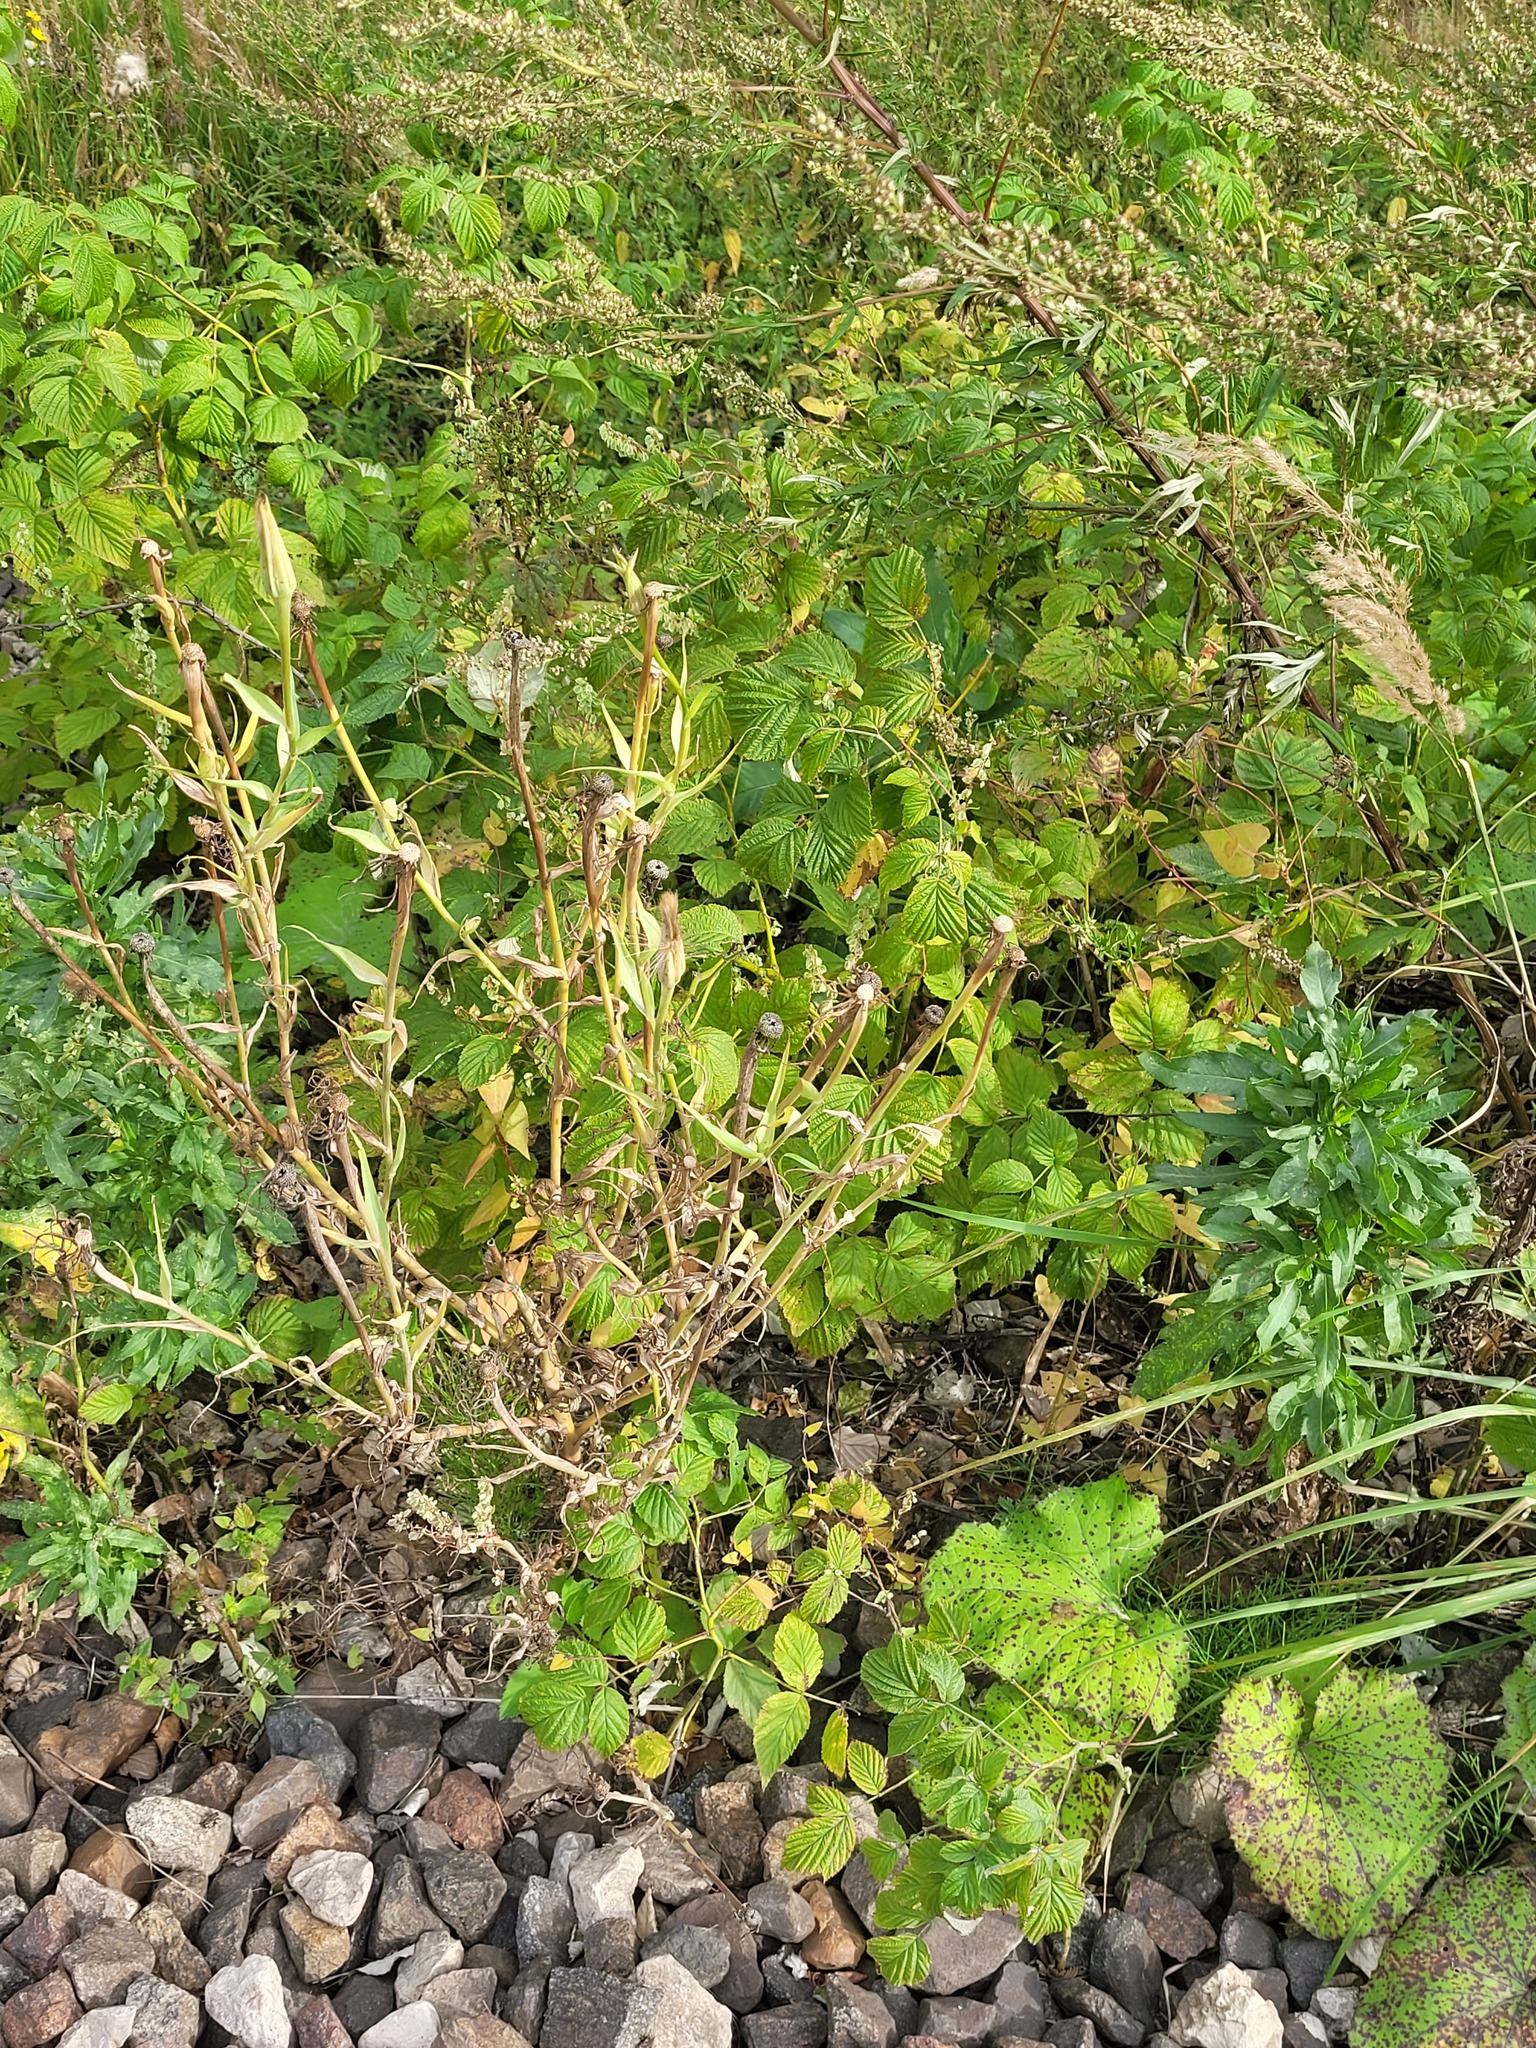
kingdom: Plantae
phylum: Tracheophyta
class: Magnoliopsida
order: Asterales
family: Asteraceae
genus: Tragopogon
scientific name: Tragopogon dubius
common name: Yellow salsify
